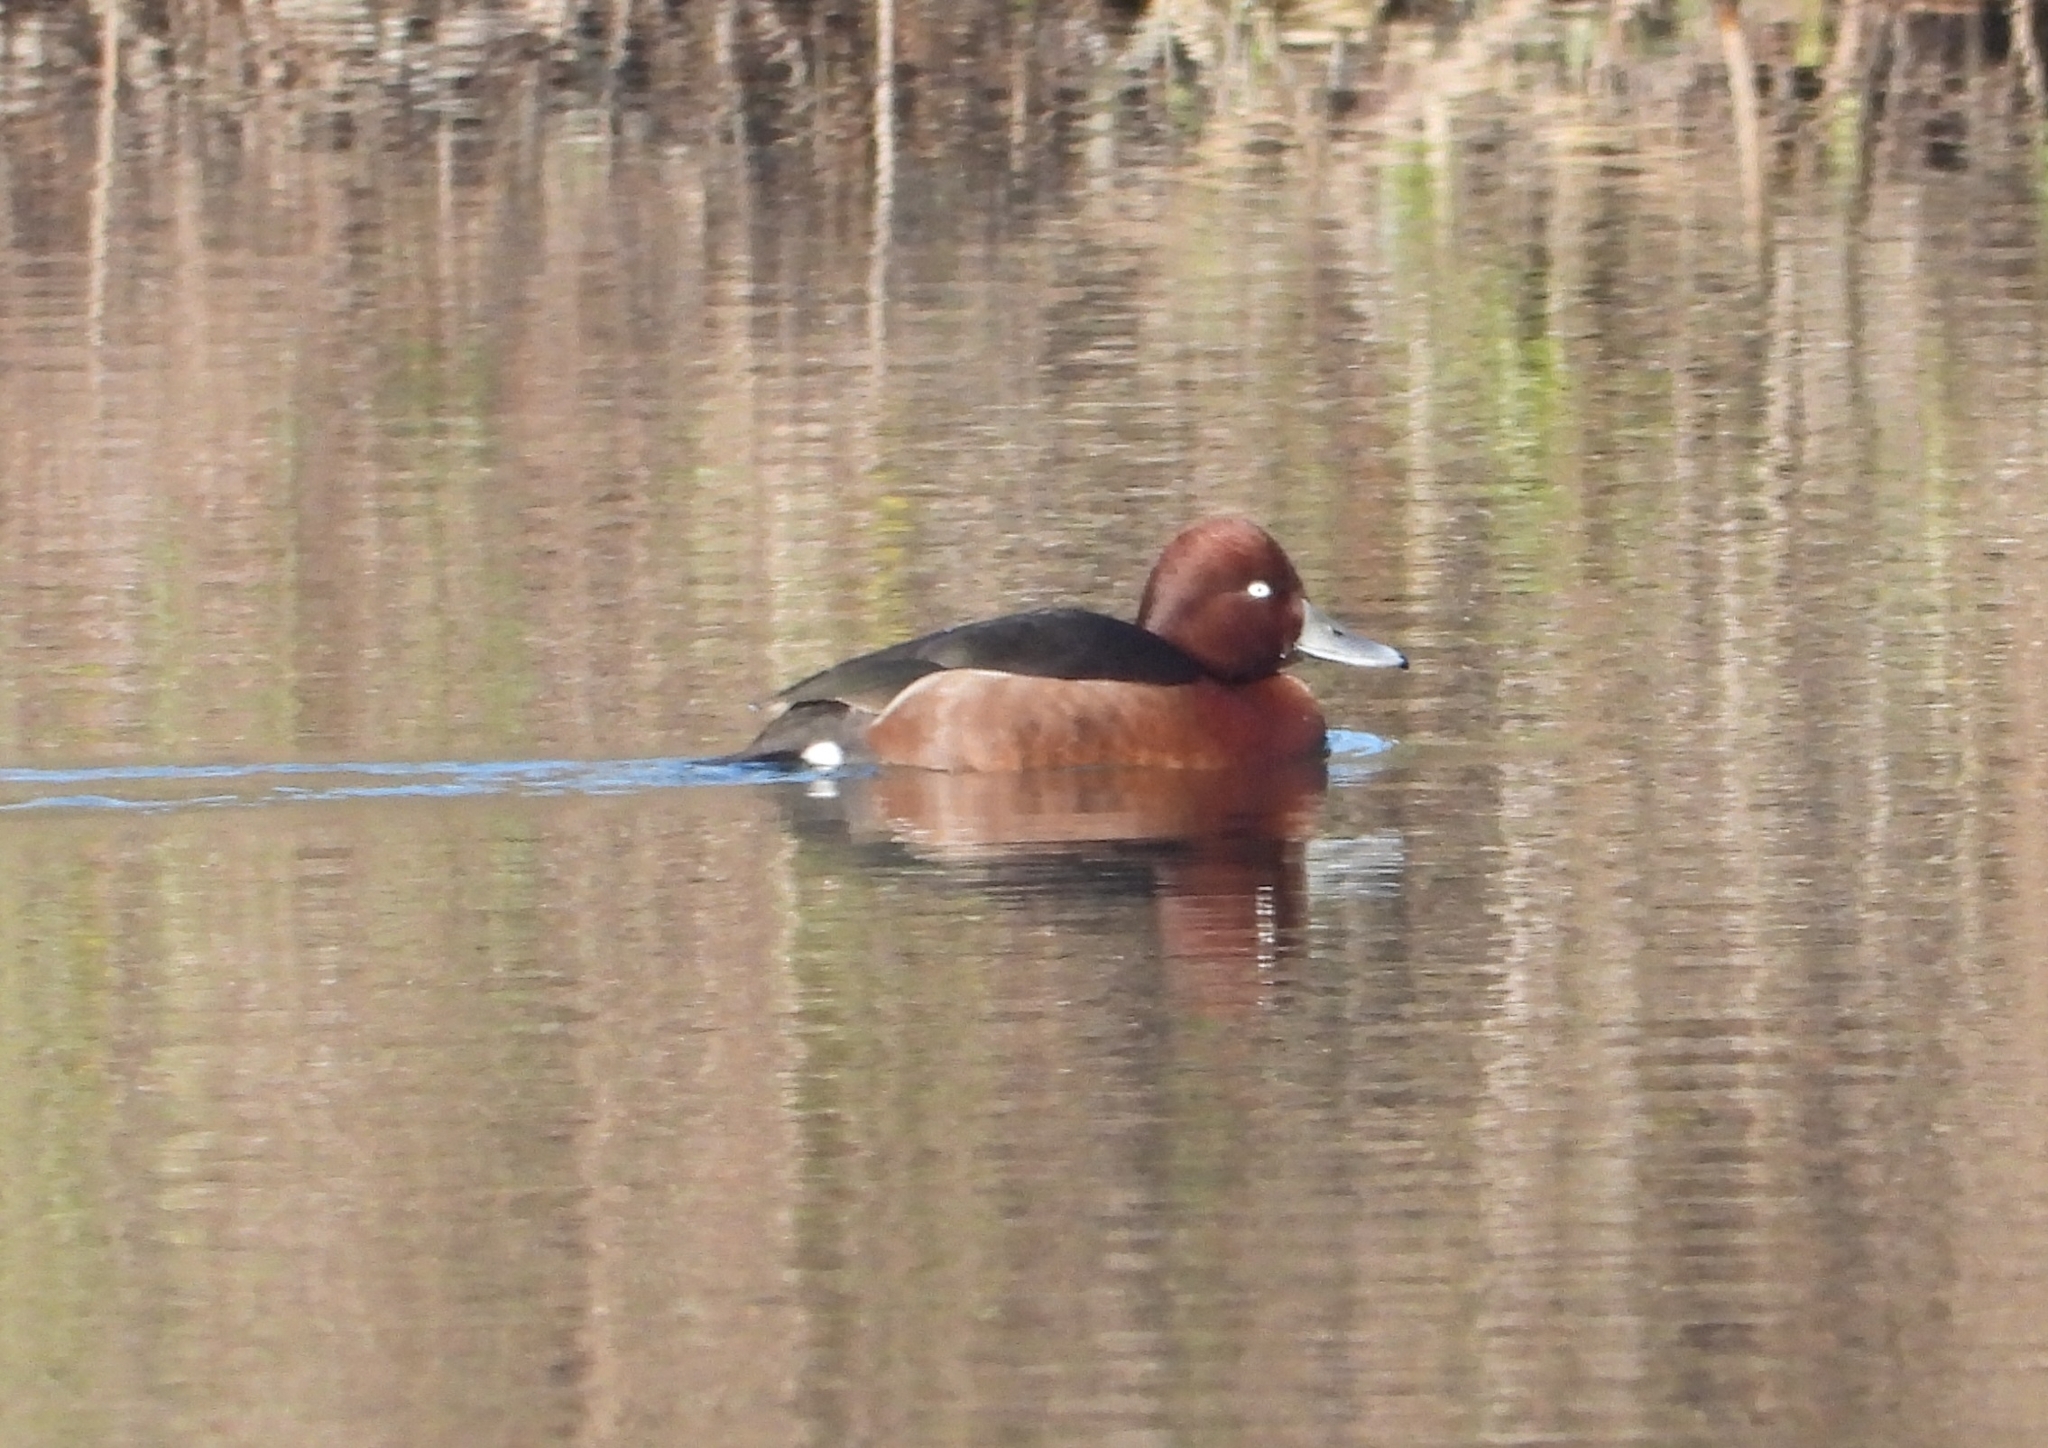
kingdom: Animalia
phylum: Chordata
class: Aves
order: Anseriformes
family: Anatidae
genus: Aythya
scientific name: Aythya nyroca
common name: Ferruginous duck
